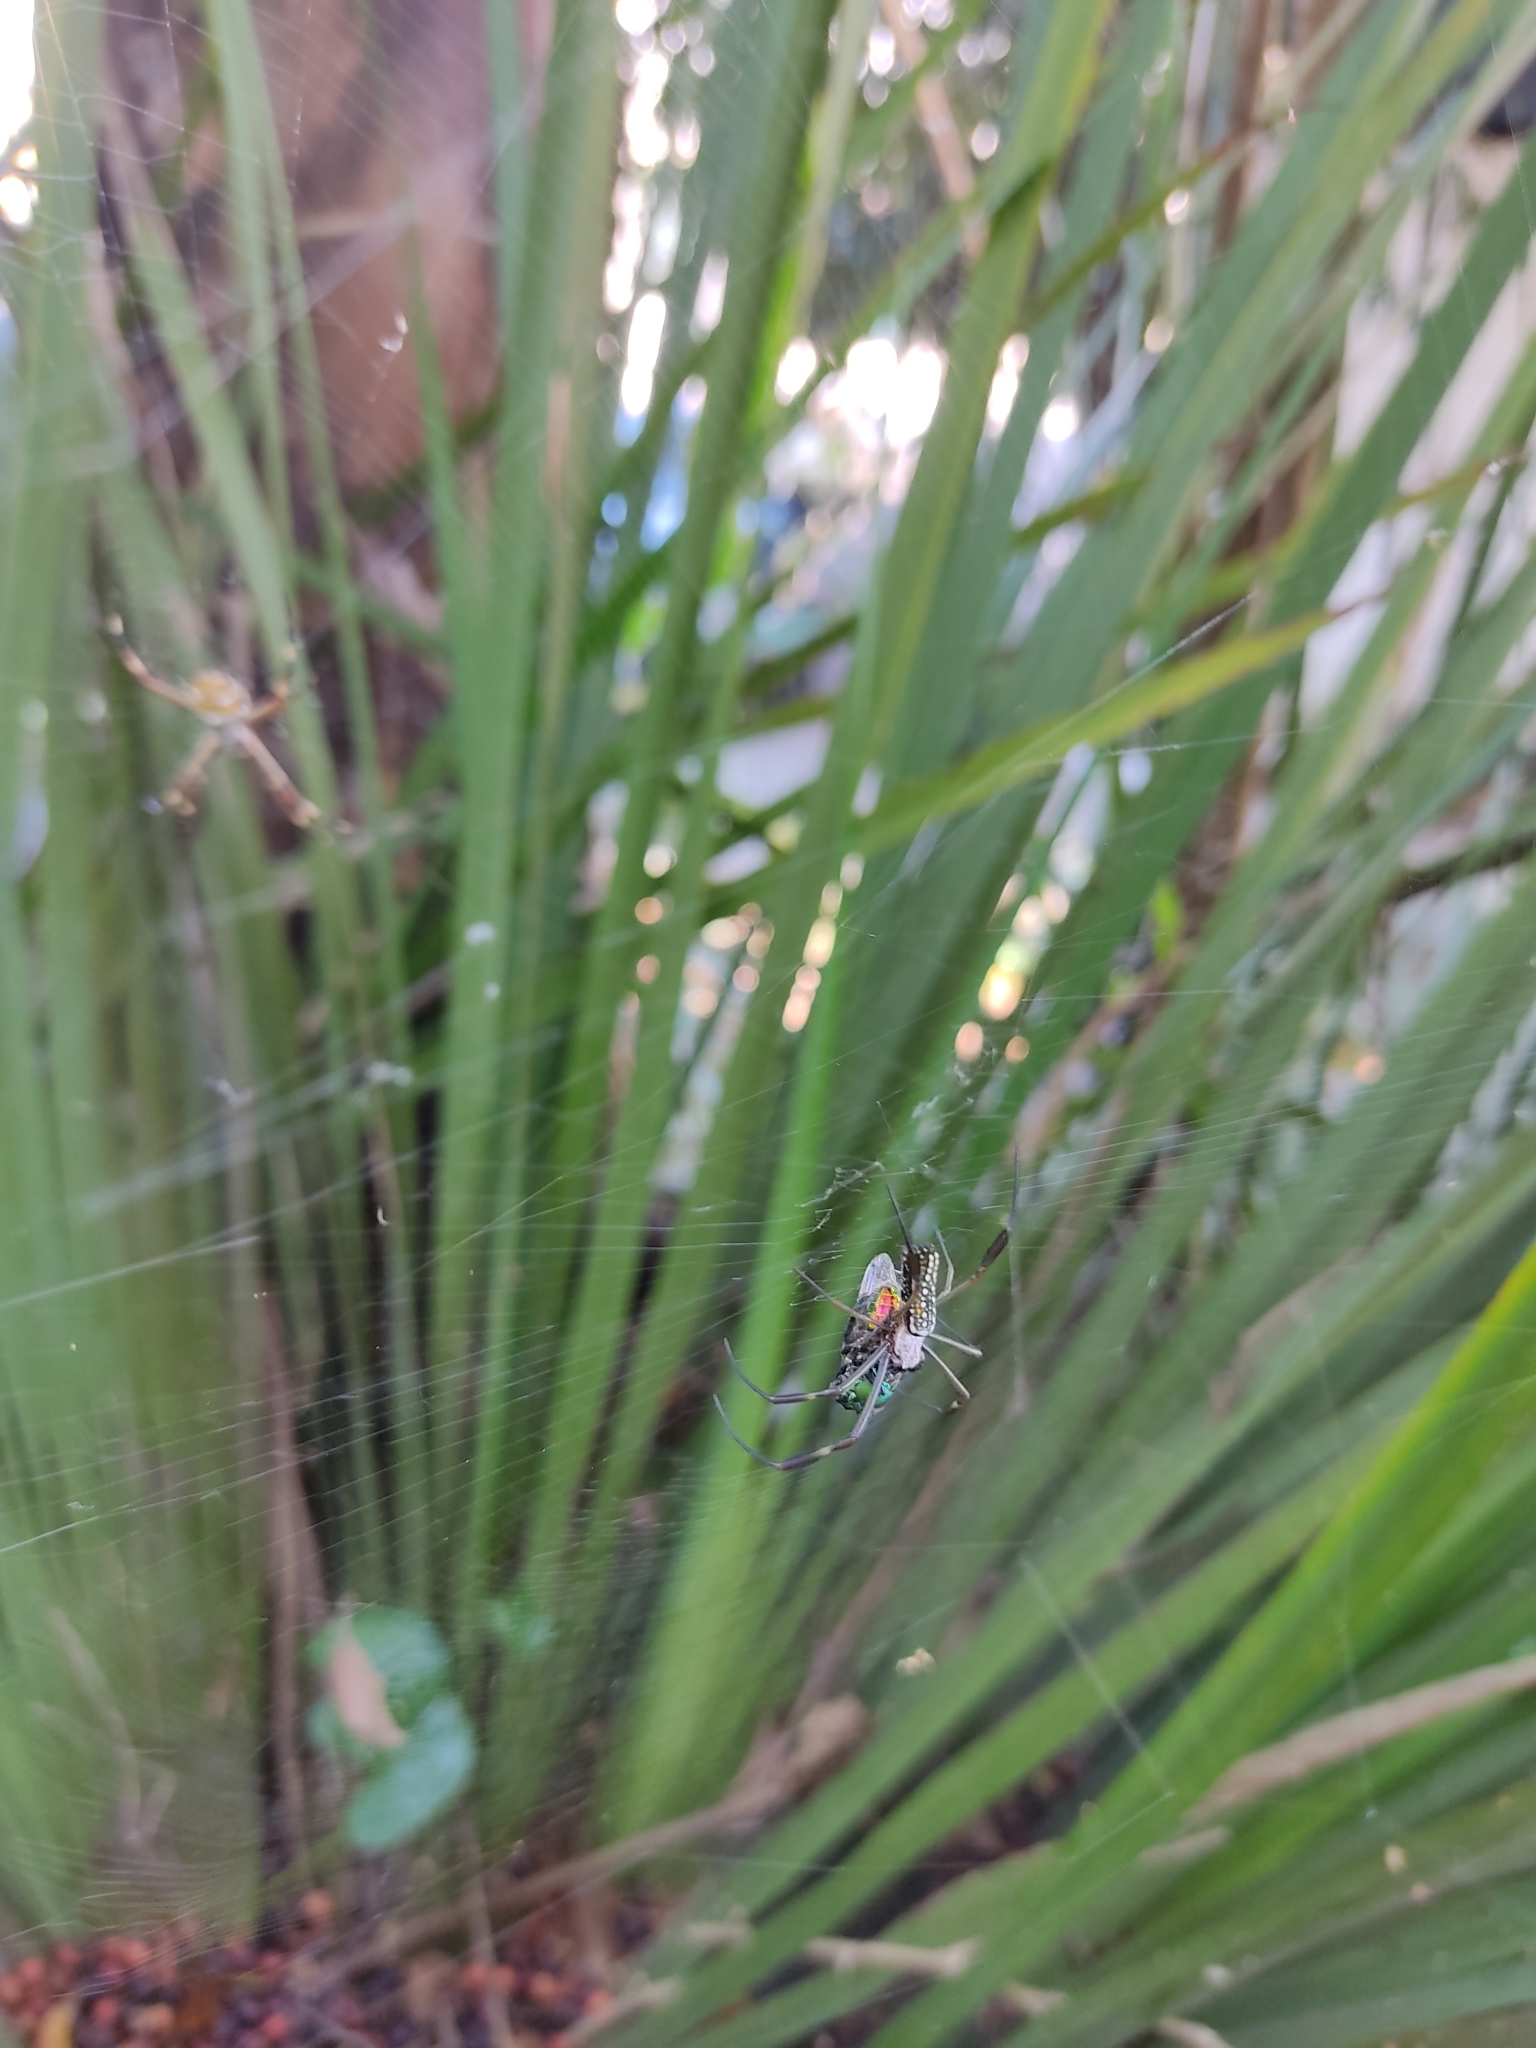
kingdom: Animalia
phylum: Arthropoda
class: Arachnida
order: Araneae
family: Araneidae
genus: Trichonephila
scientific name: Trichonephila clavipes
